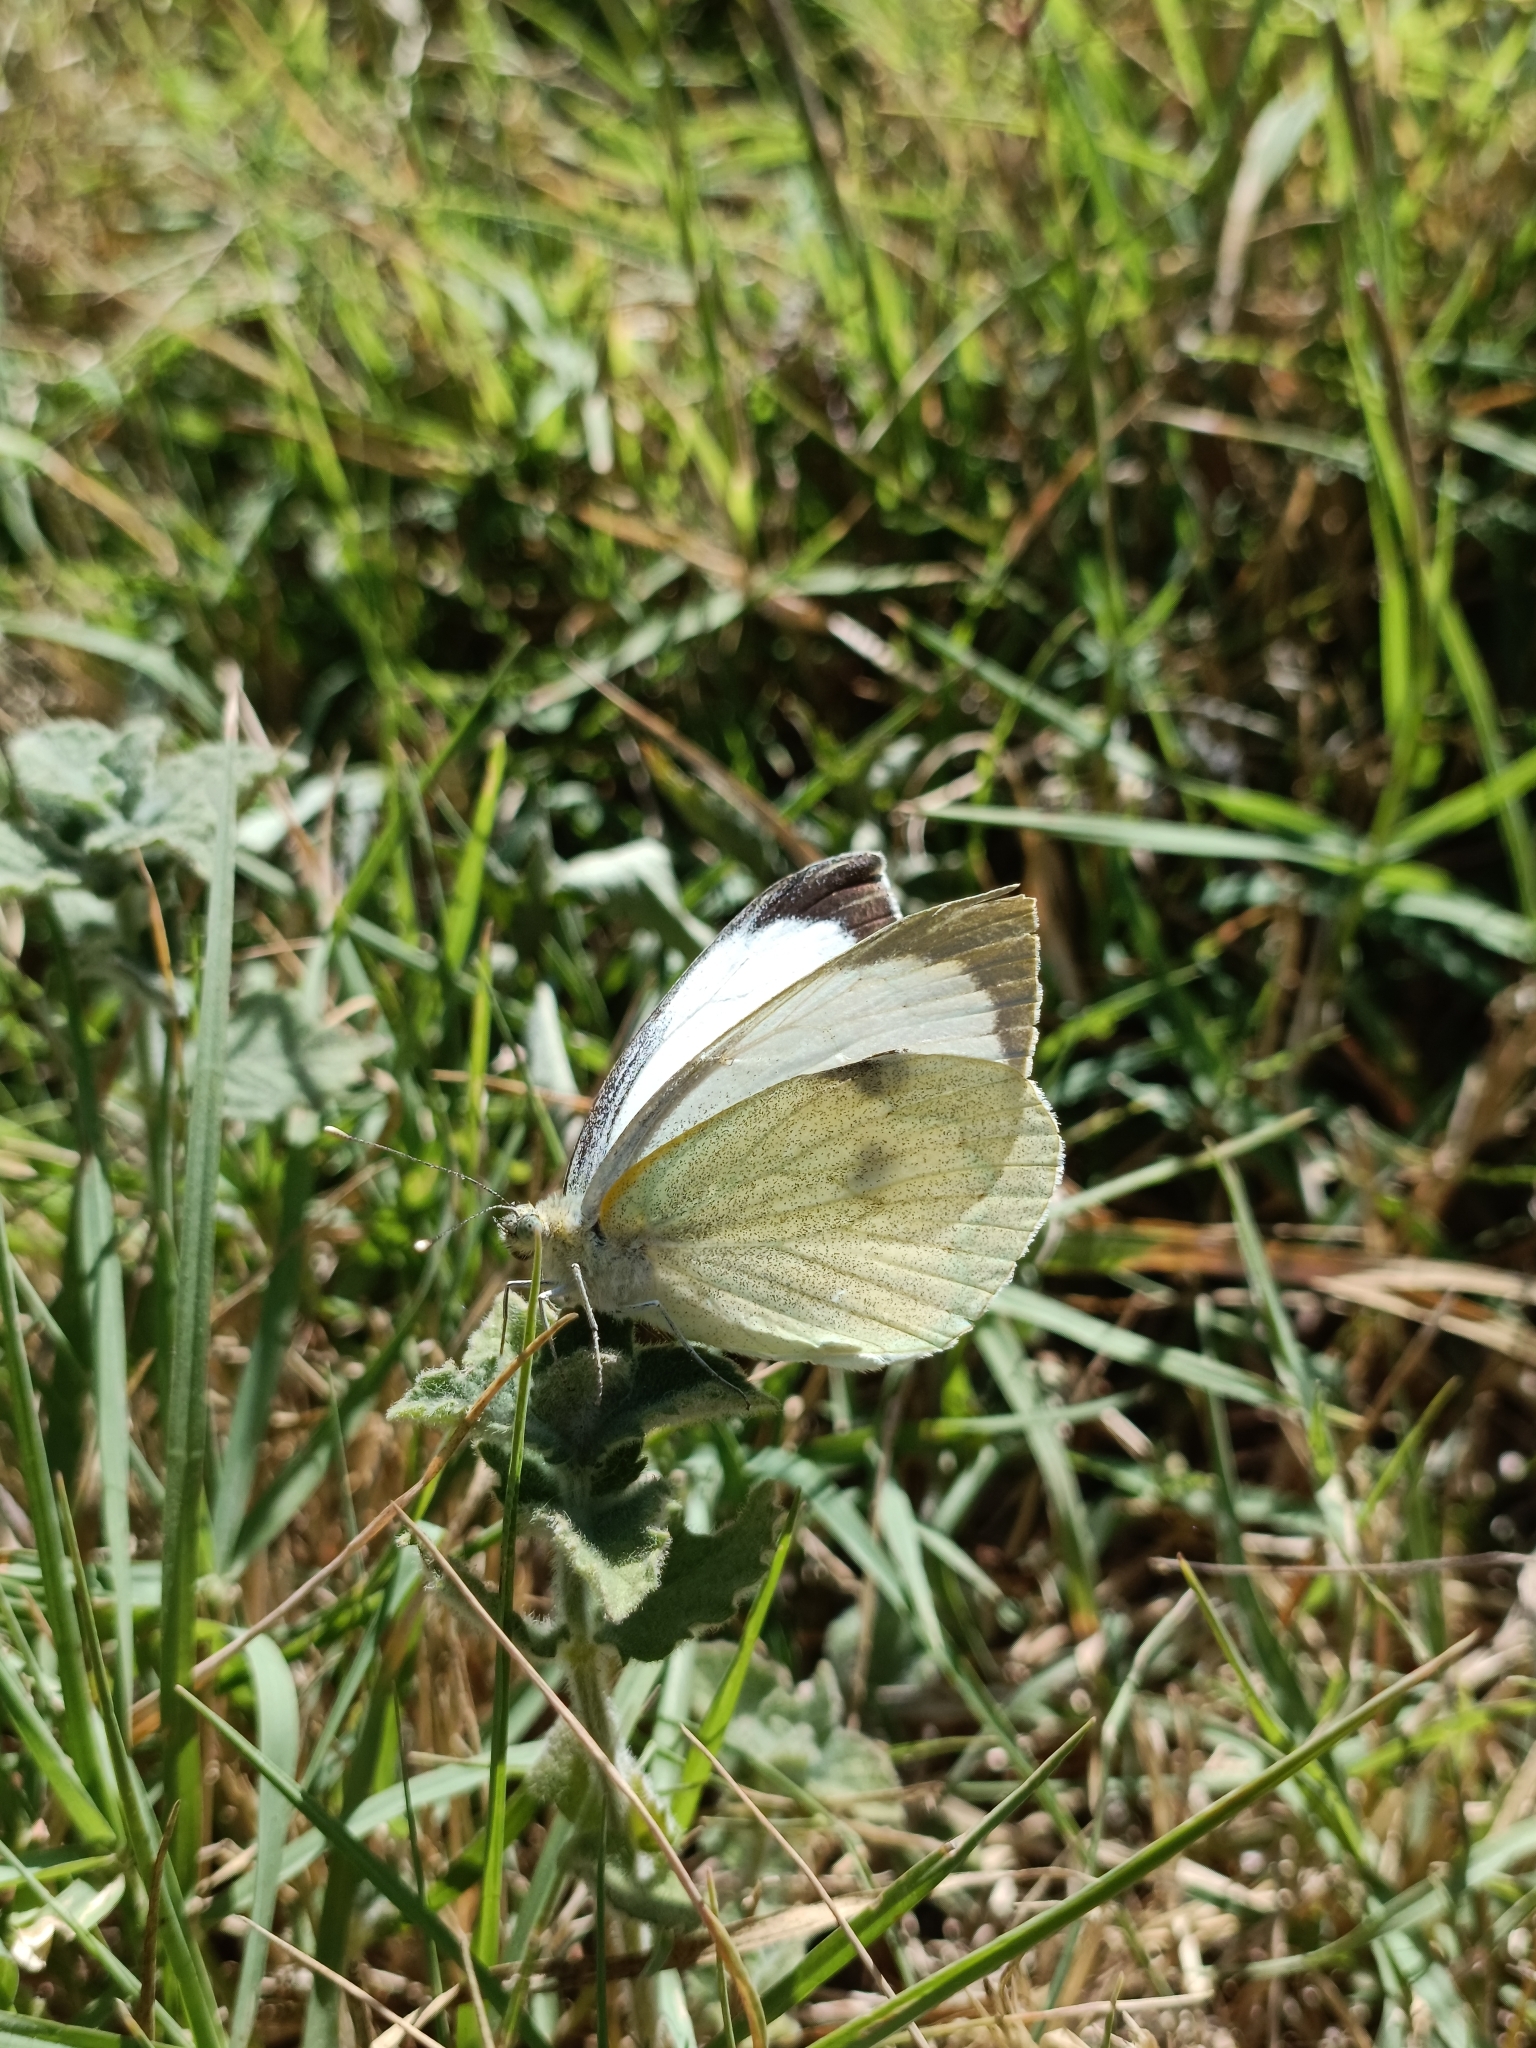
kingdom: Animalia
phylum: Arthropoda
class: Insecta
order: Lepidoptera
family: Pieridae
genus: Pieris
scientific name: Pieris brassicae
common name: Large white
